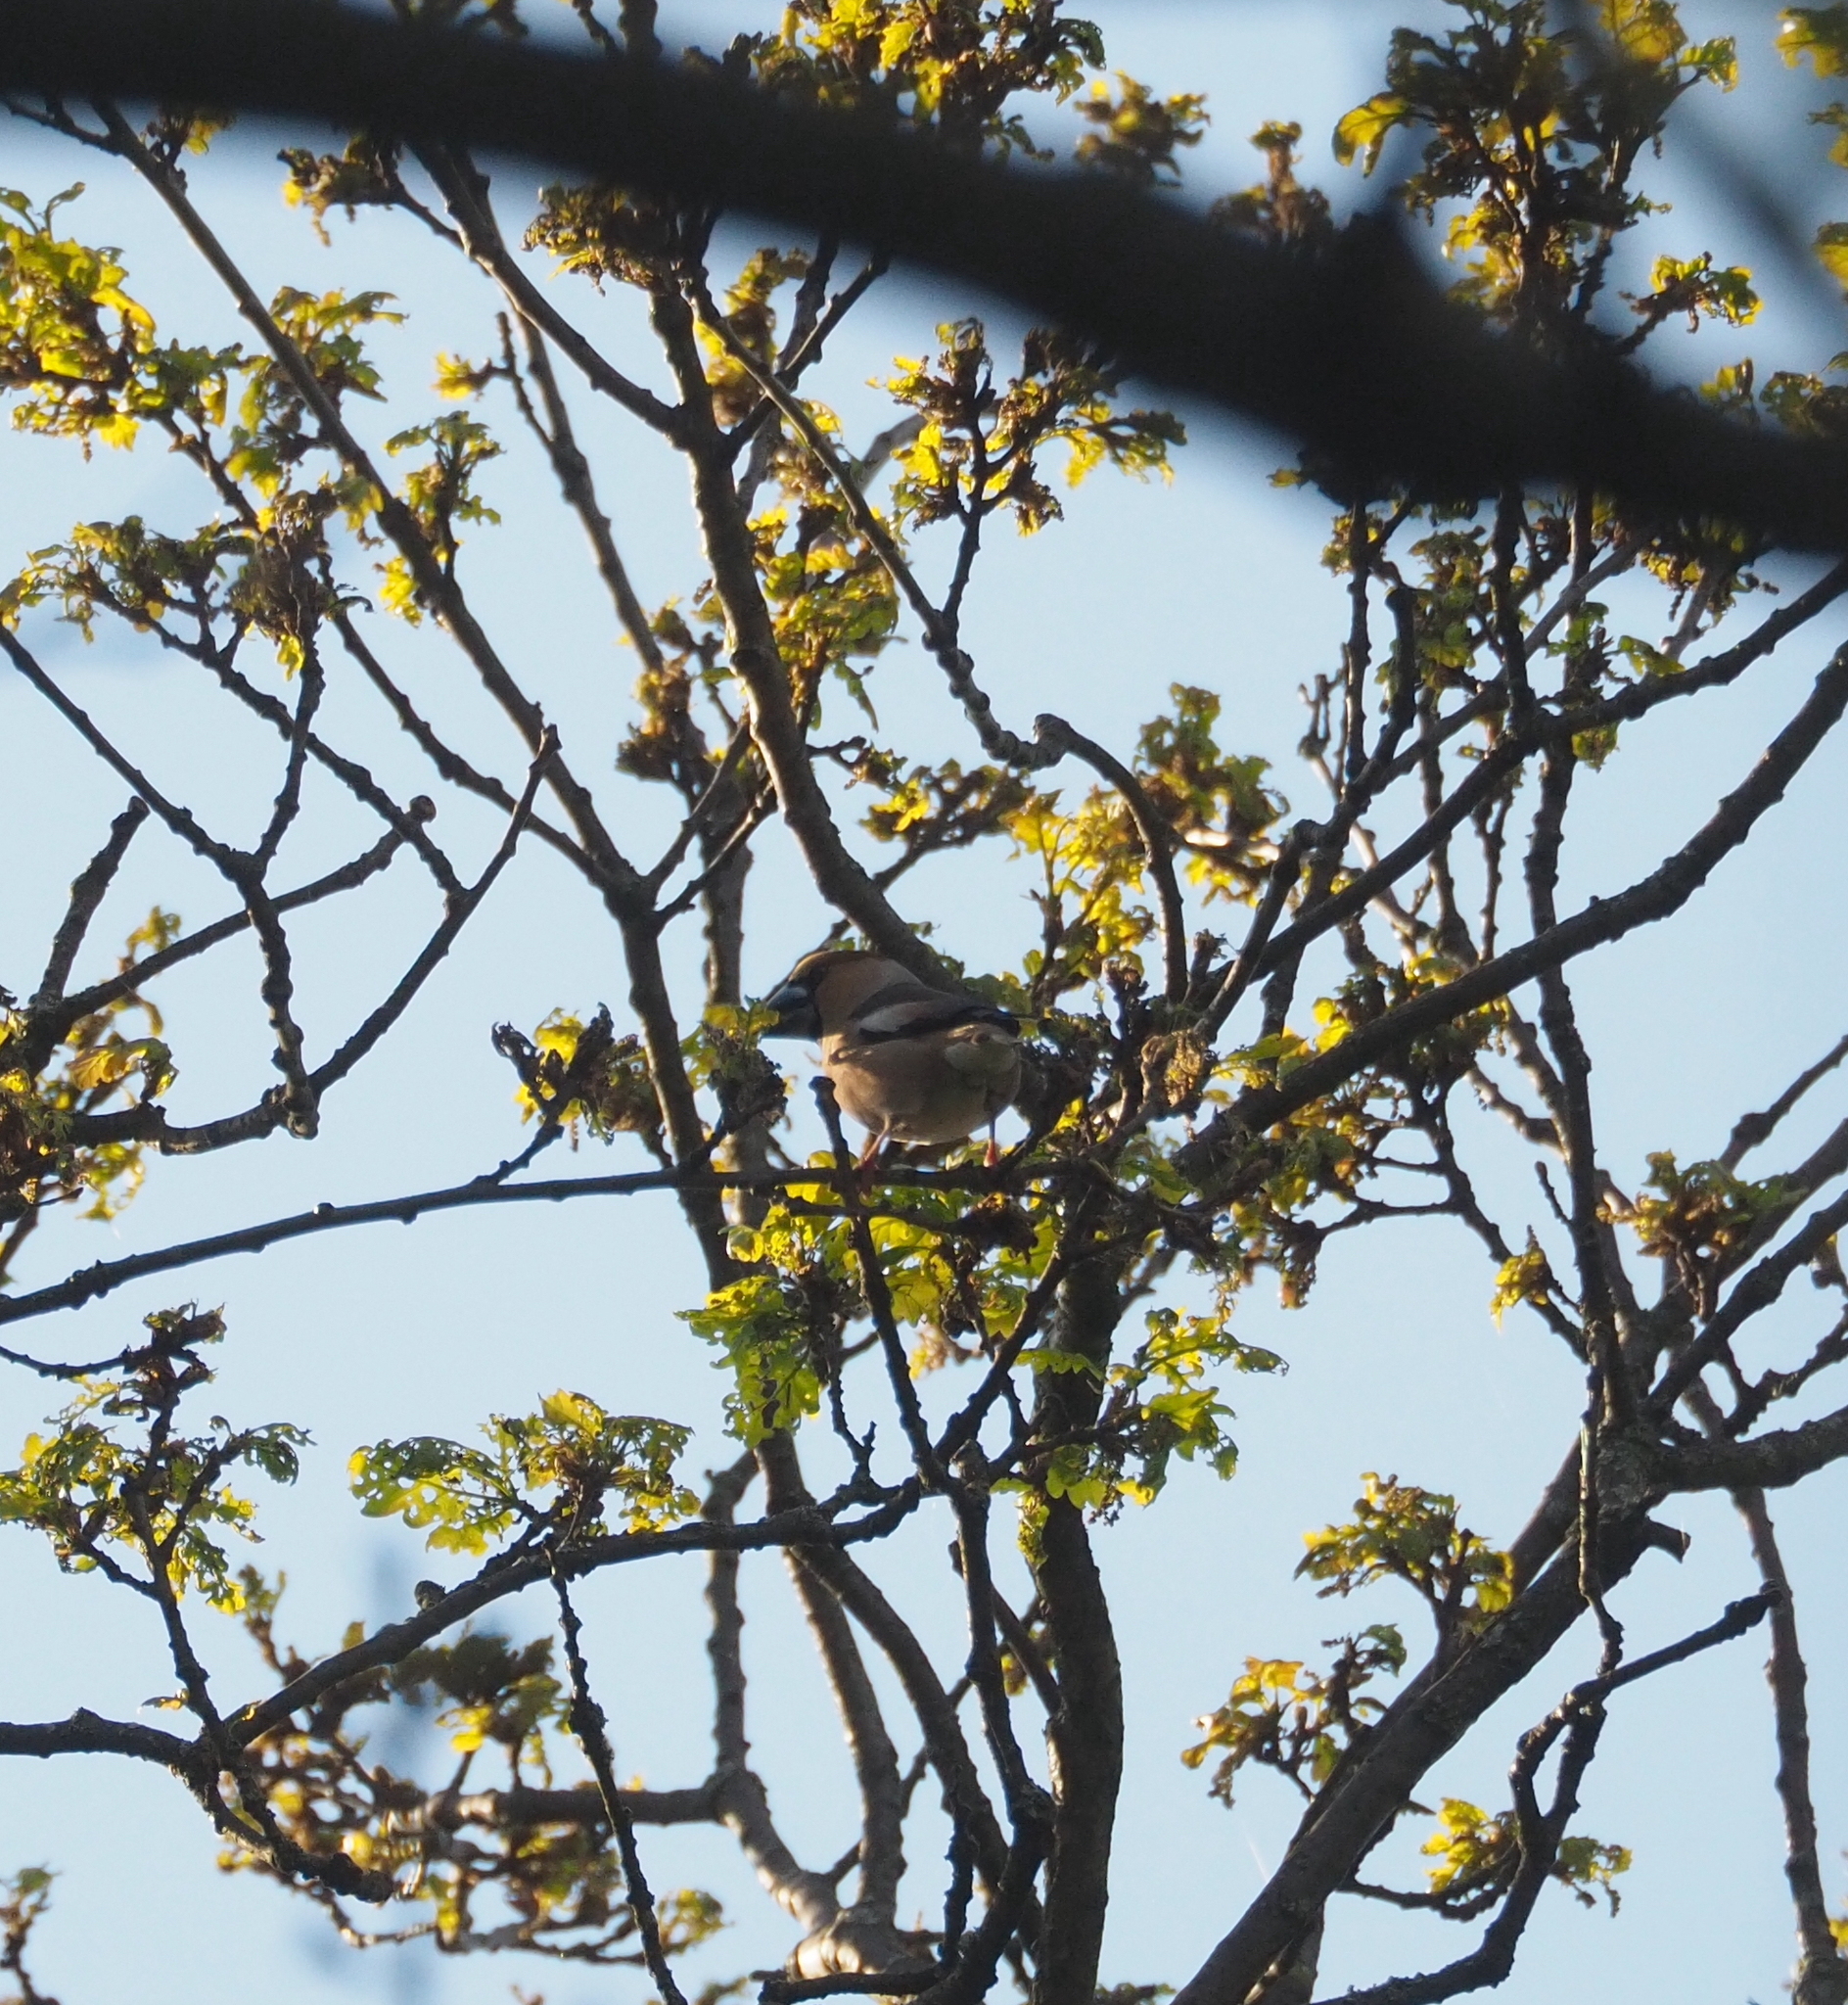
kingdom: Animalia
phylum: Chordata
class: Aves
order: Passeriformes
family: Fringillidae
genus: Coccothraustes
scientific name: Coccothraustes coccothraustes
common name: Hawfinch
